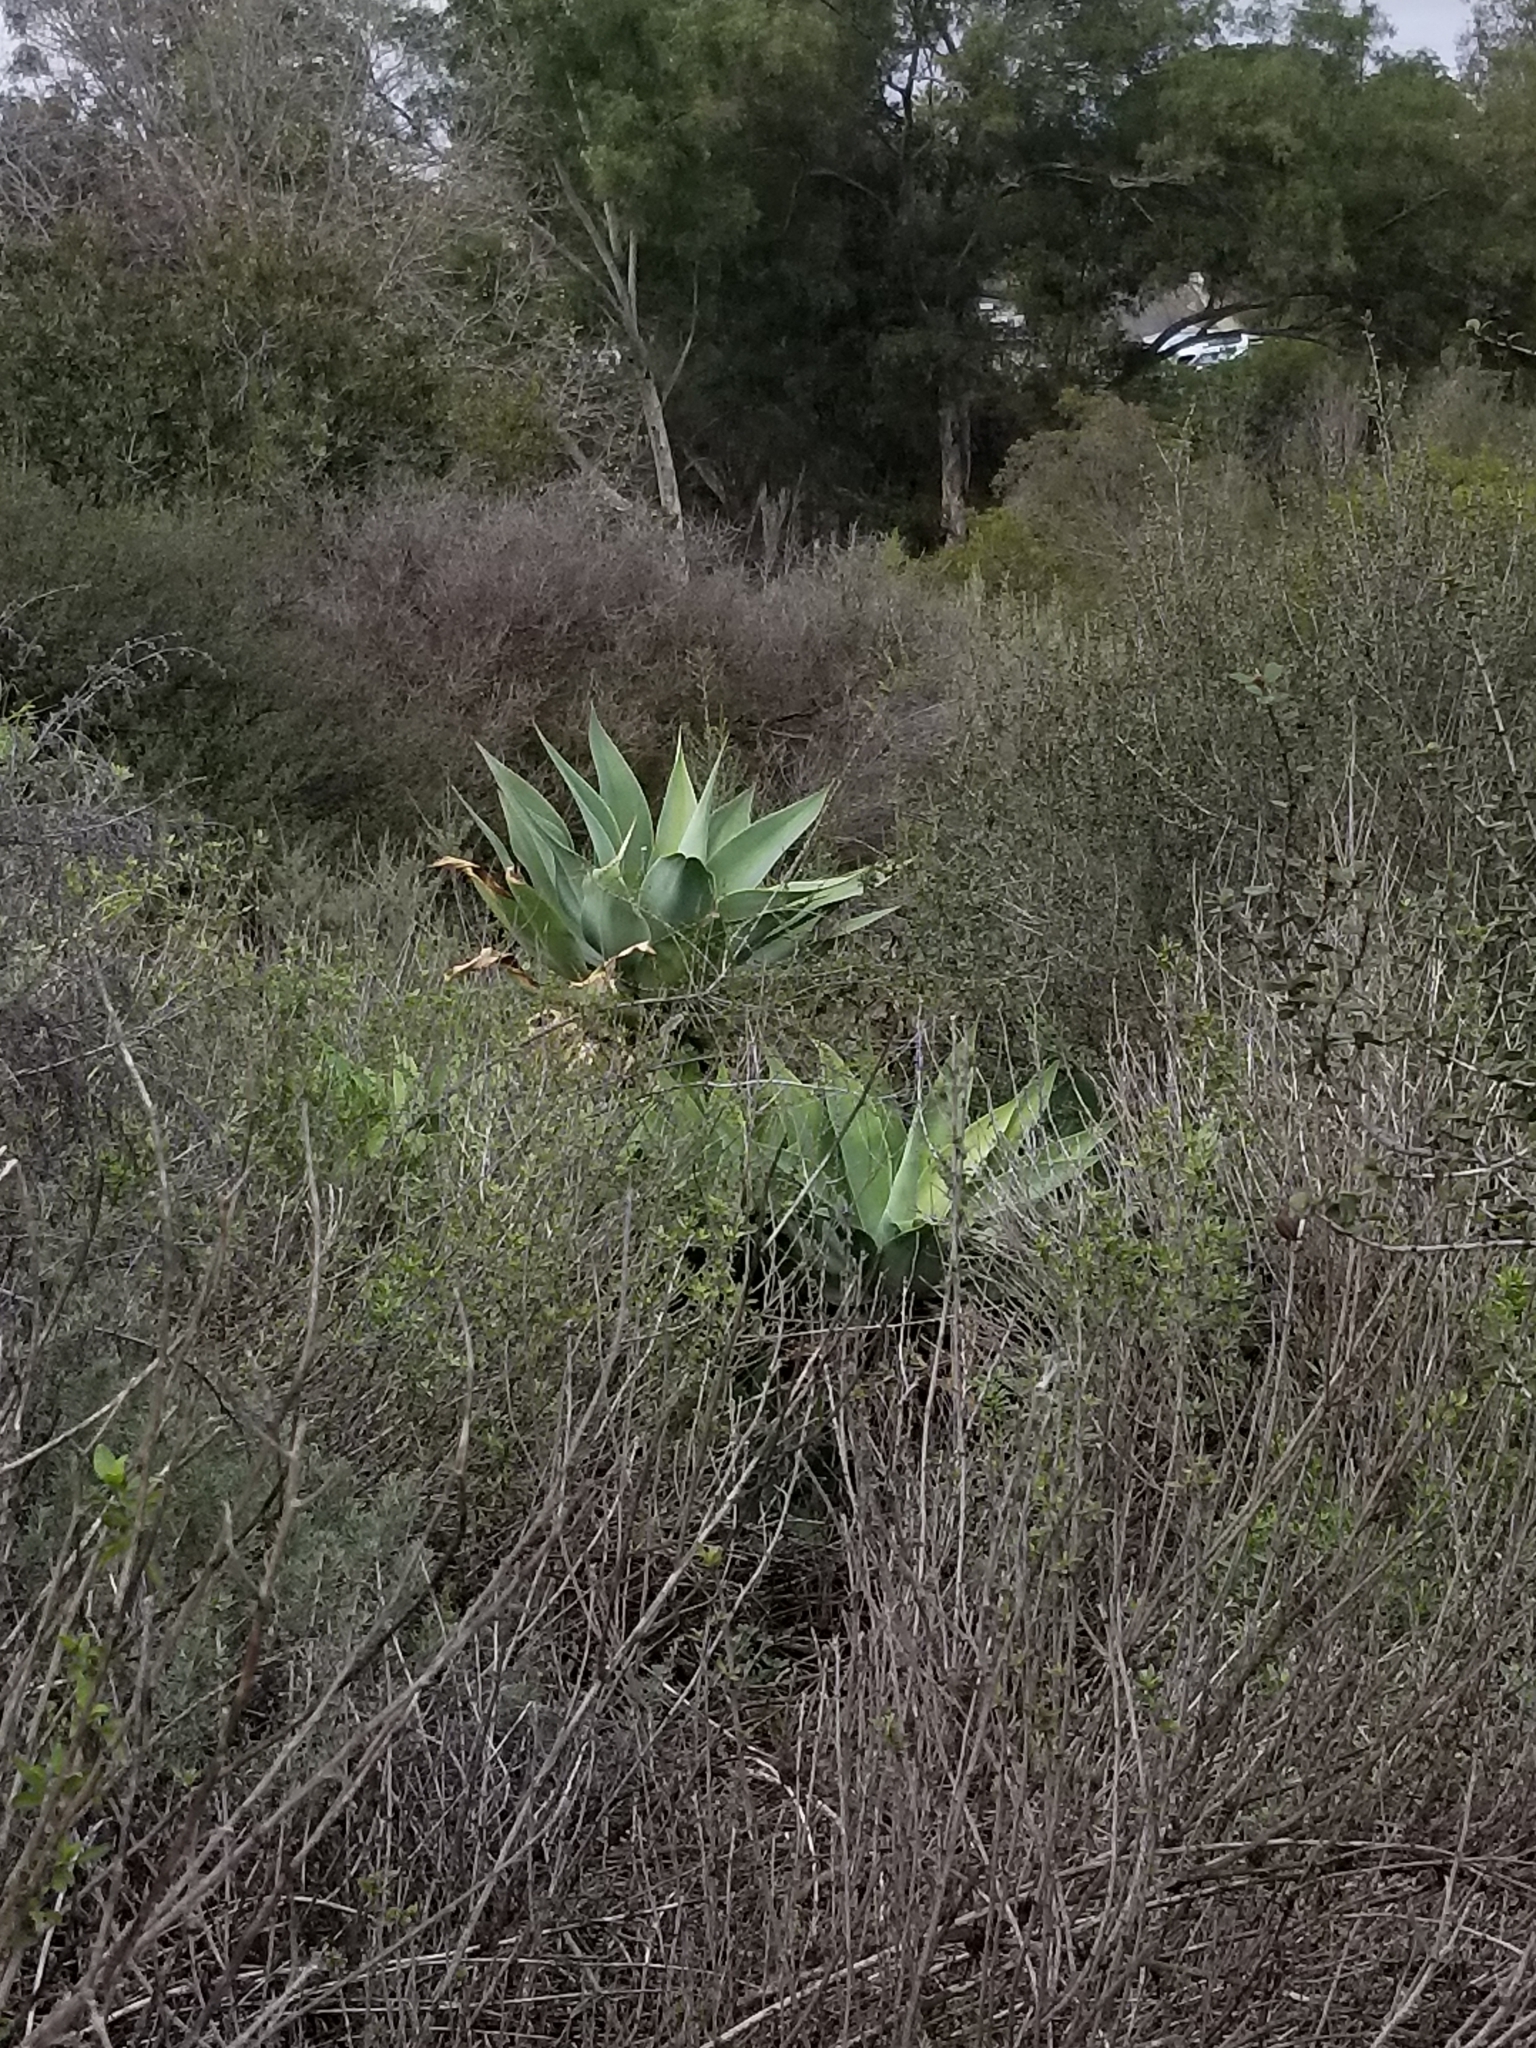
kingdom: Plantae
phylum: Tracheophyta
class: Liliopsida
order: Asparagales
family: Asparagaceae
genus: Agave
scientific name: Agave attenuata
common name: Fox tail agave
